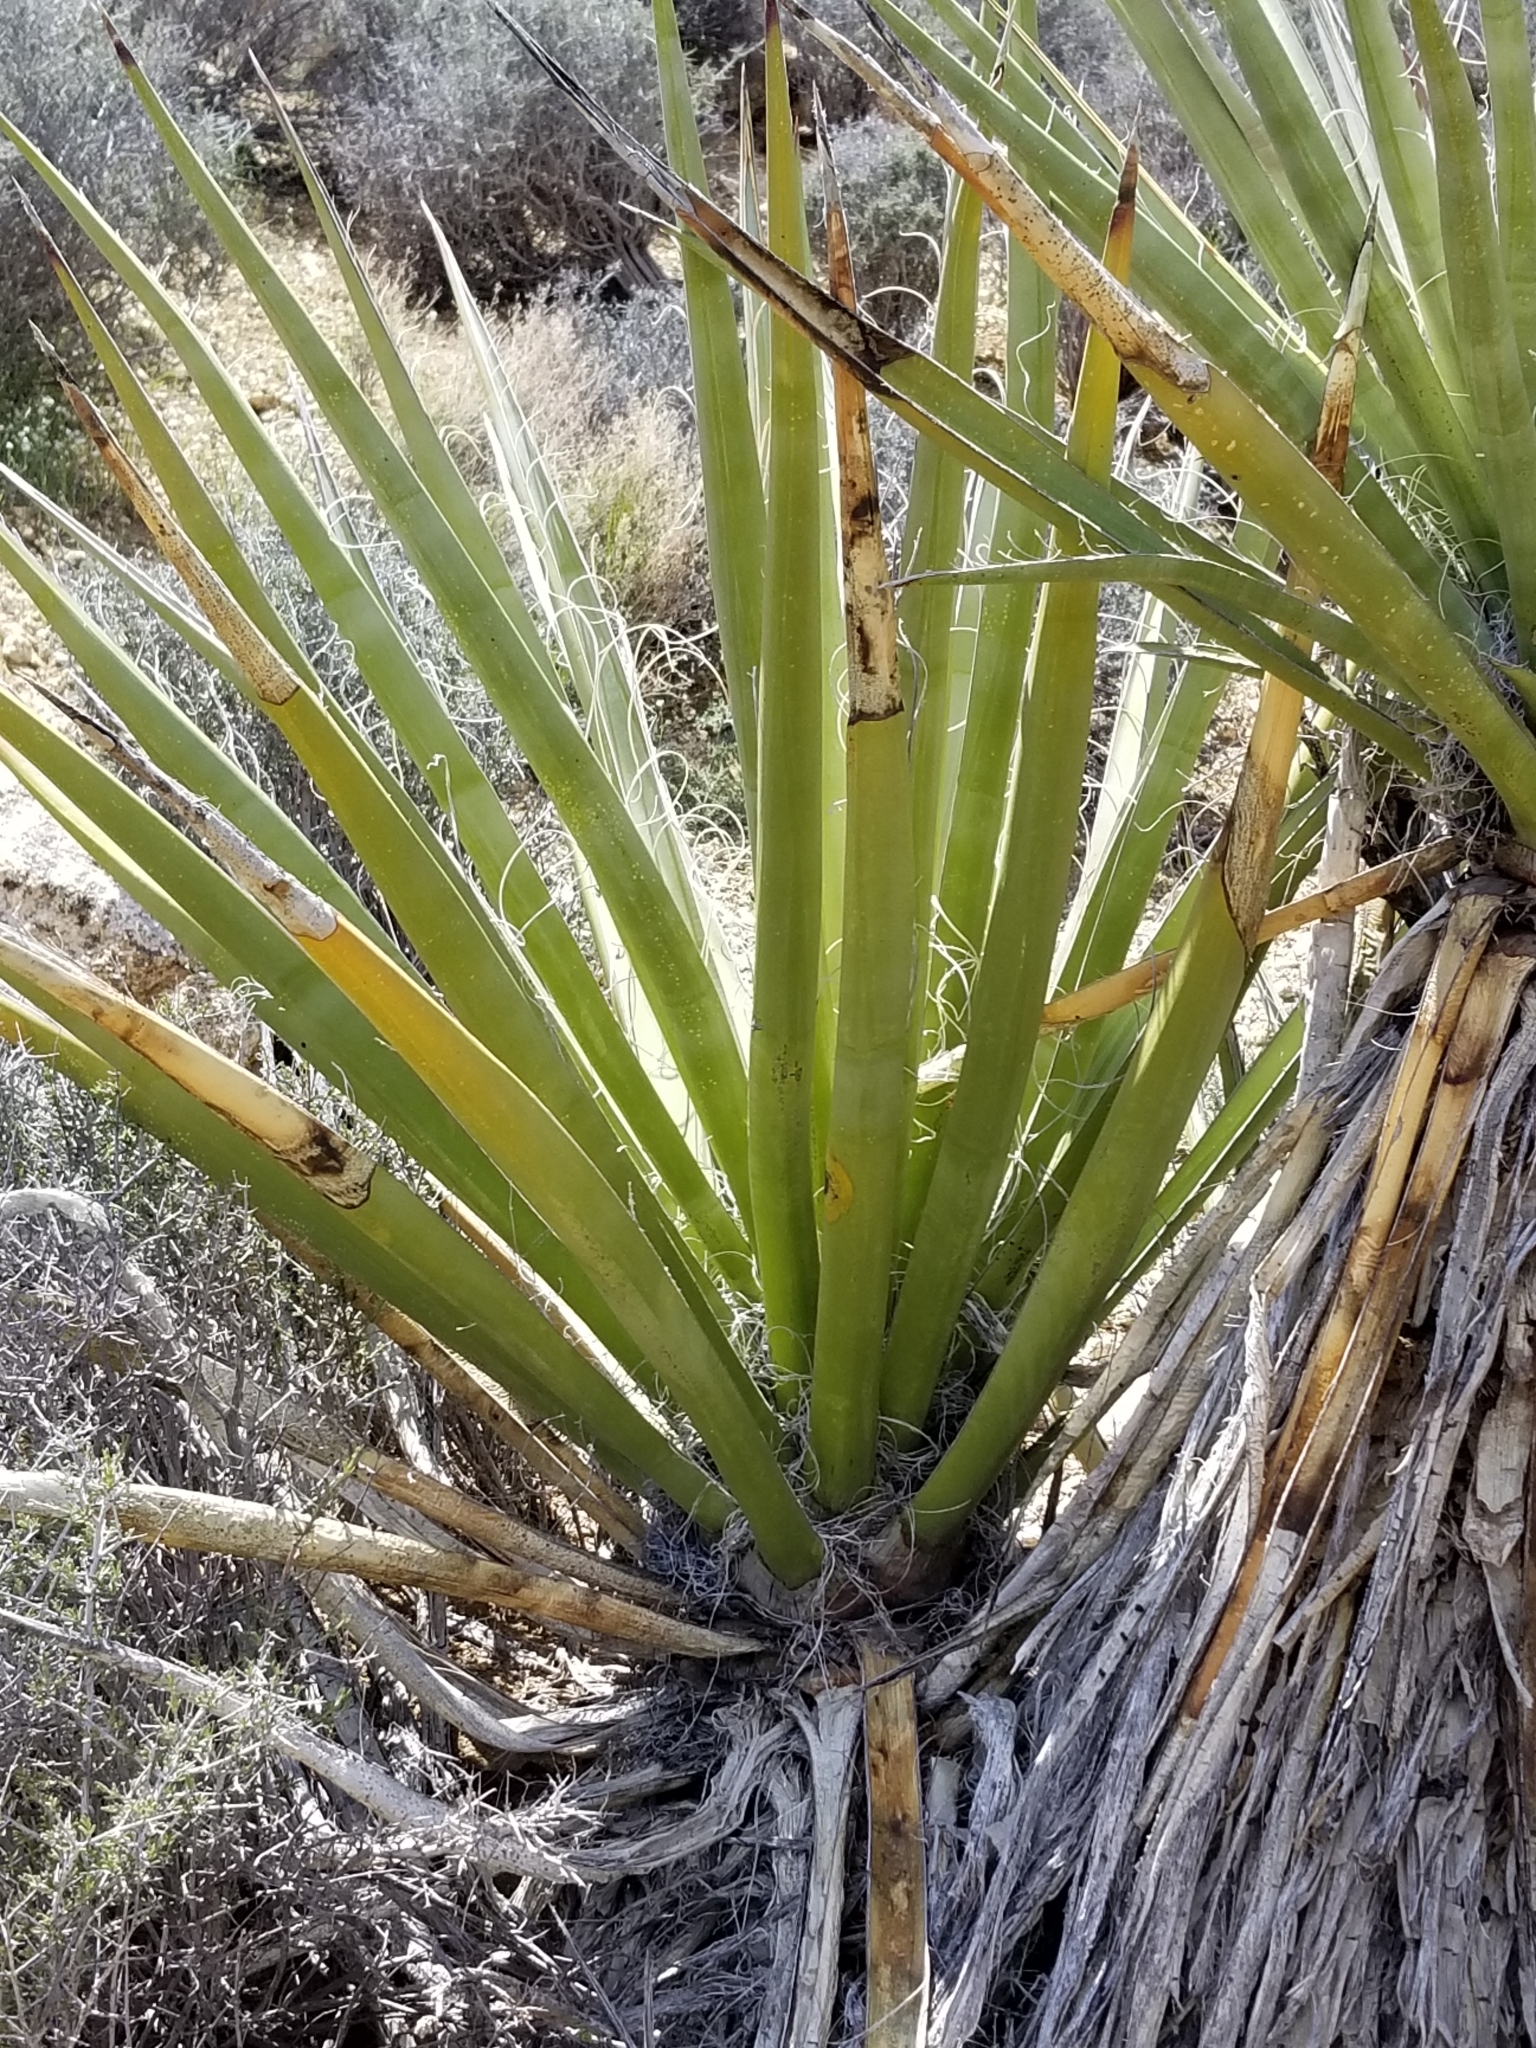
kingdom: Plantae
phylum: Tracheophyta
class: Liliopsida
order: Asparagales
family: Asparagaceae
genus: Yucca
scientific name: Yucca schidigera
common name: Mojave yucca
